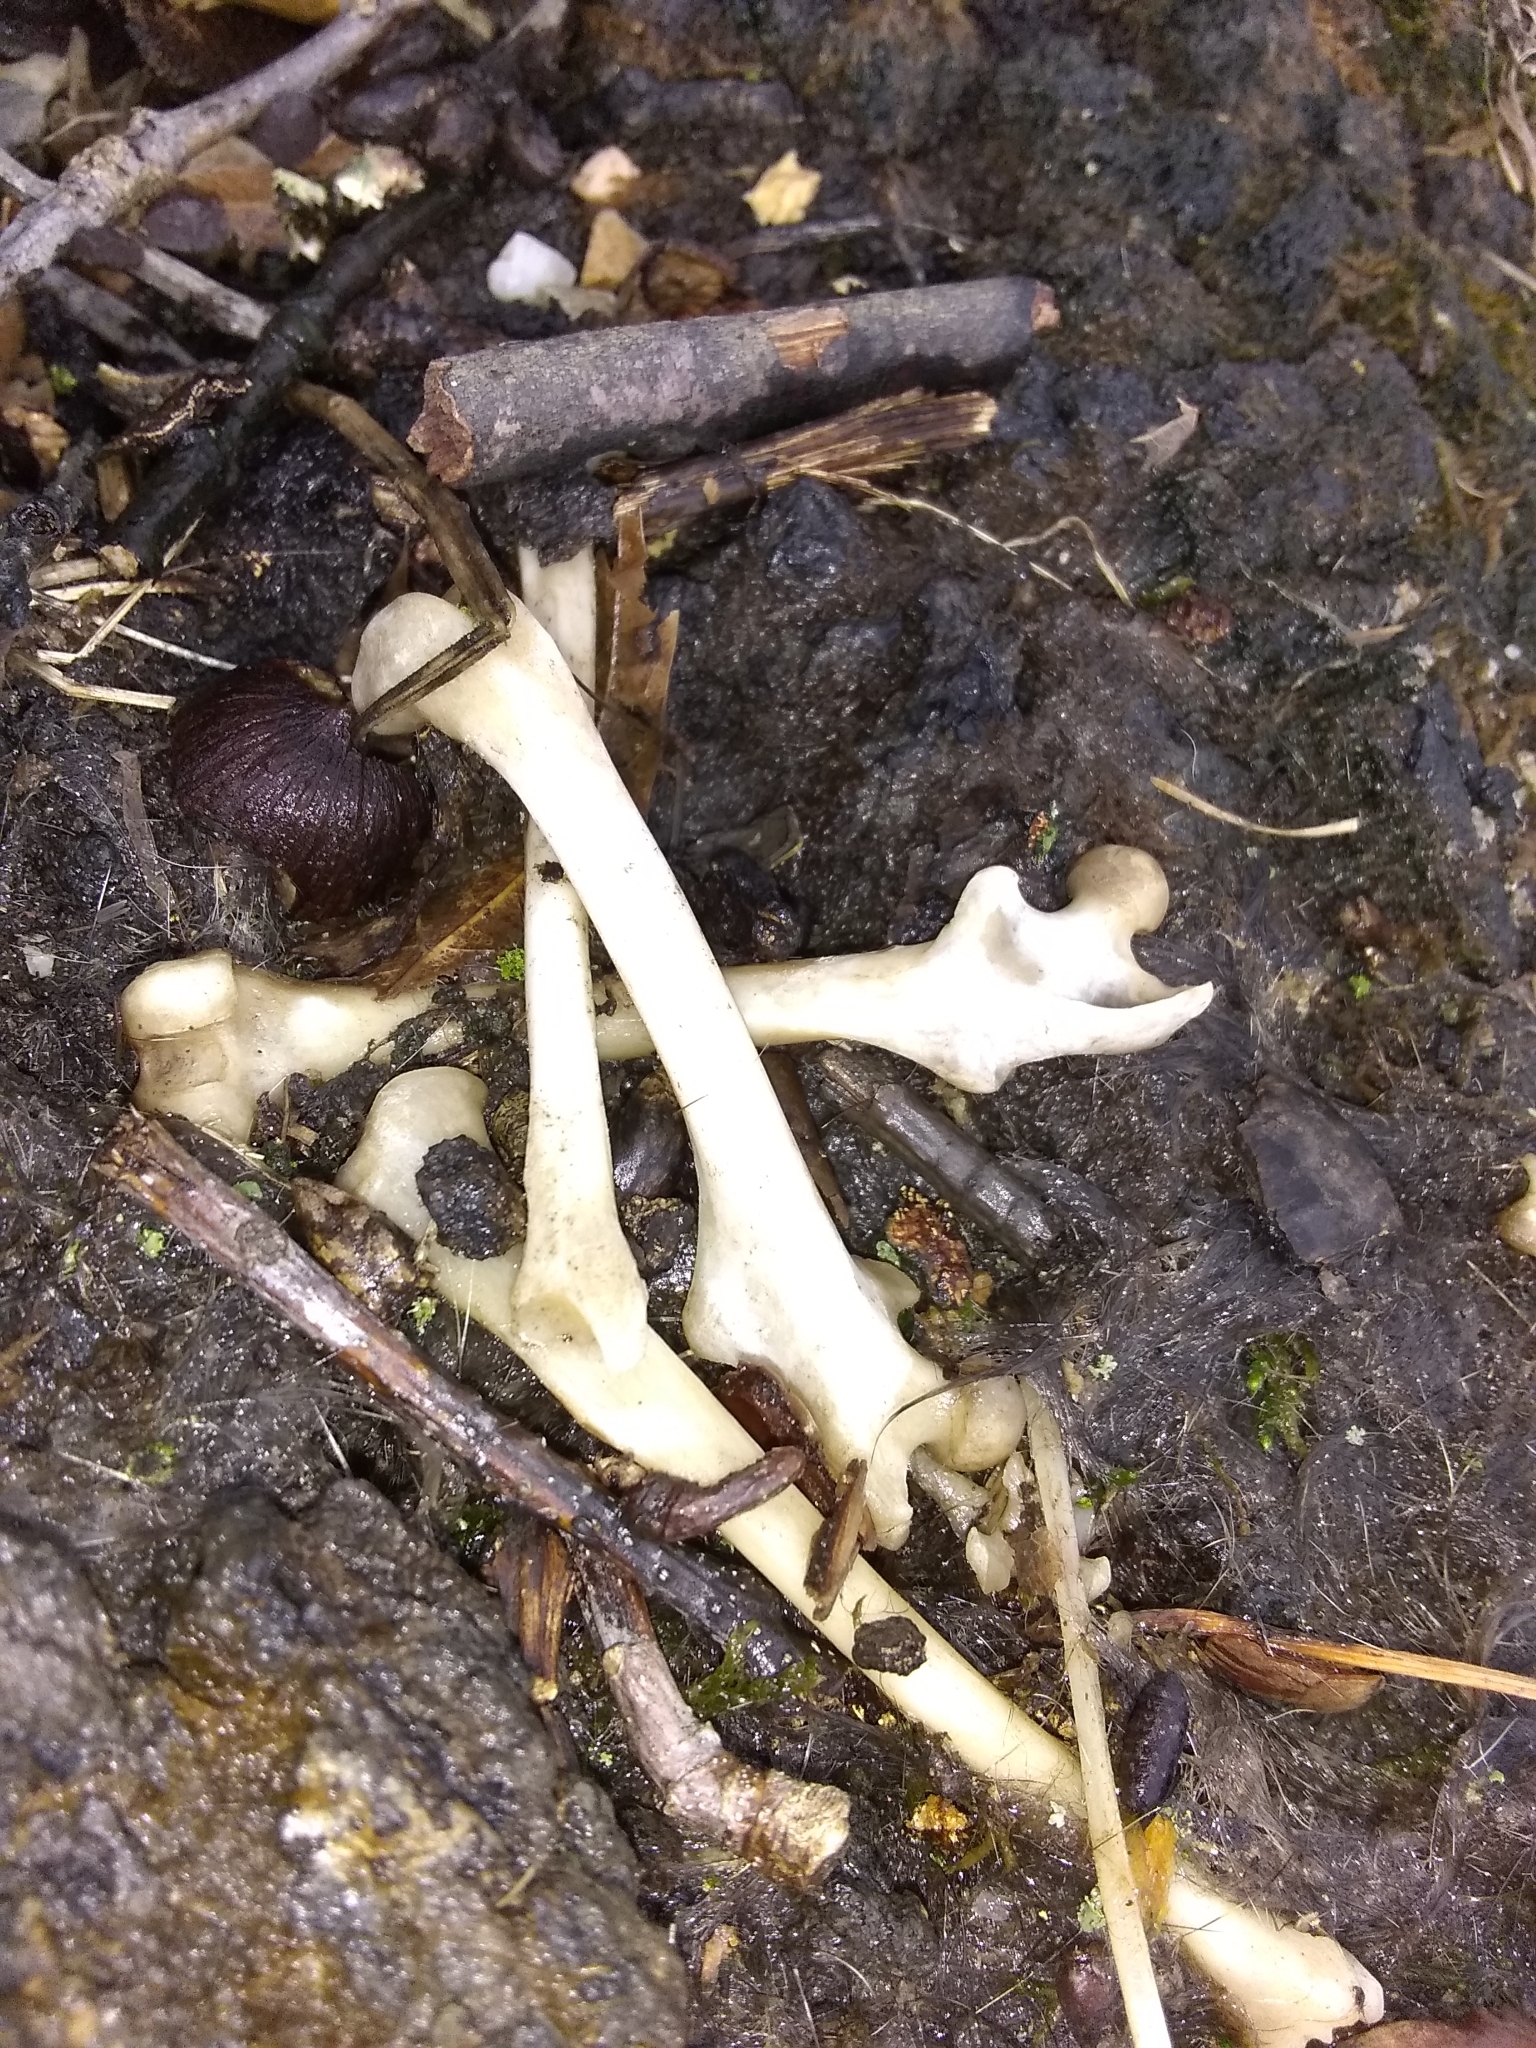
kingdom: Animalia
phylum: Chordata
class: Mammalia
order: Rodentia
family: Sciuridae
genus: Sciurus
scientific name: Sciurus carolinensis
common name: Eastern gray squirrel
